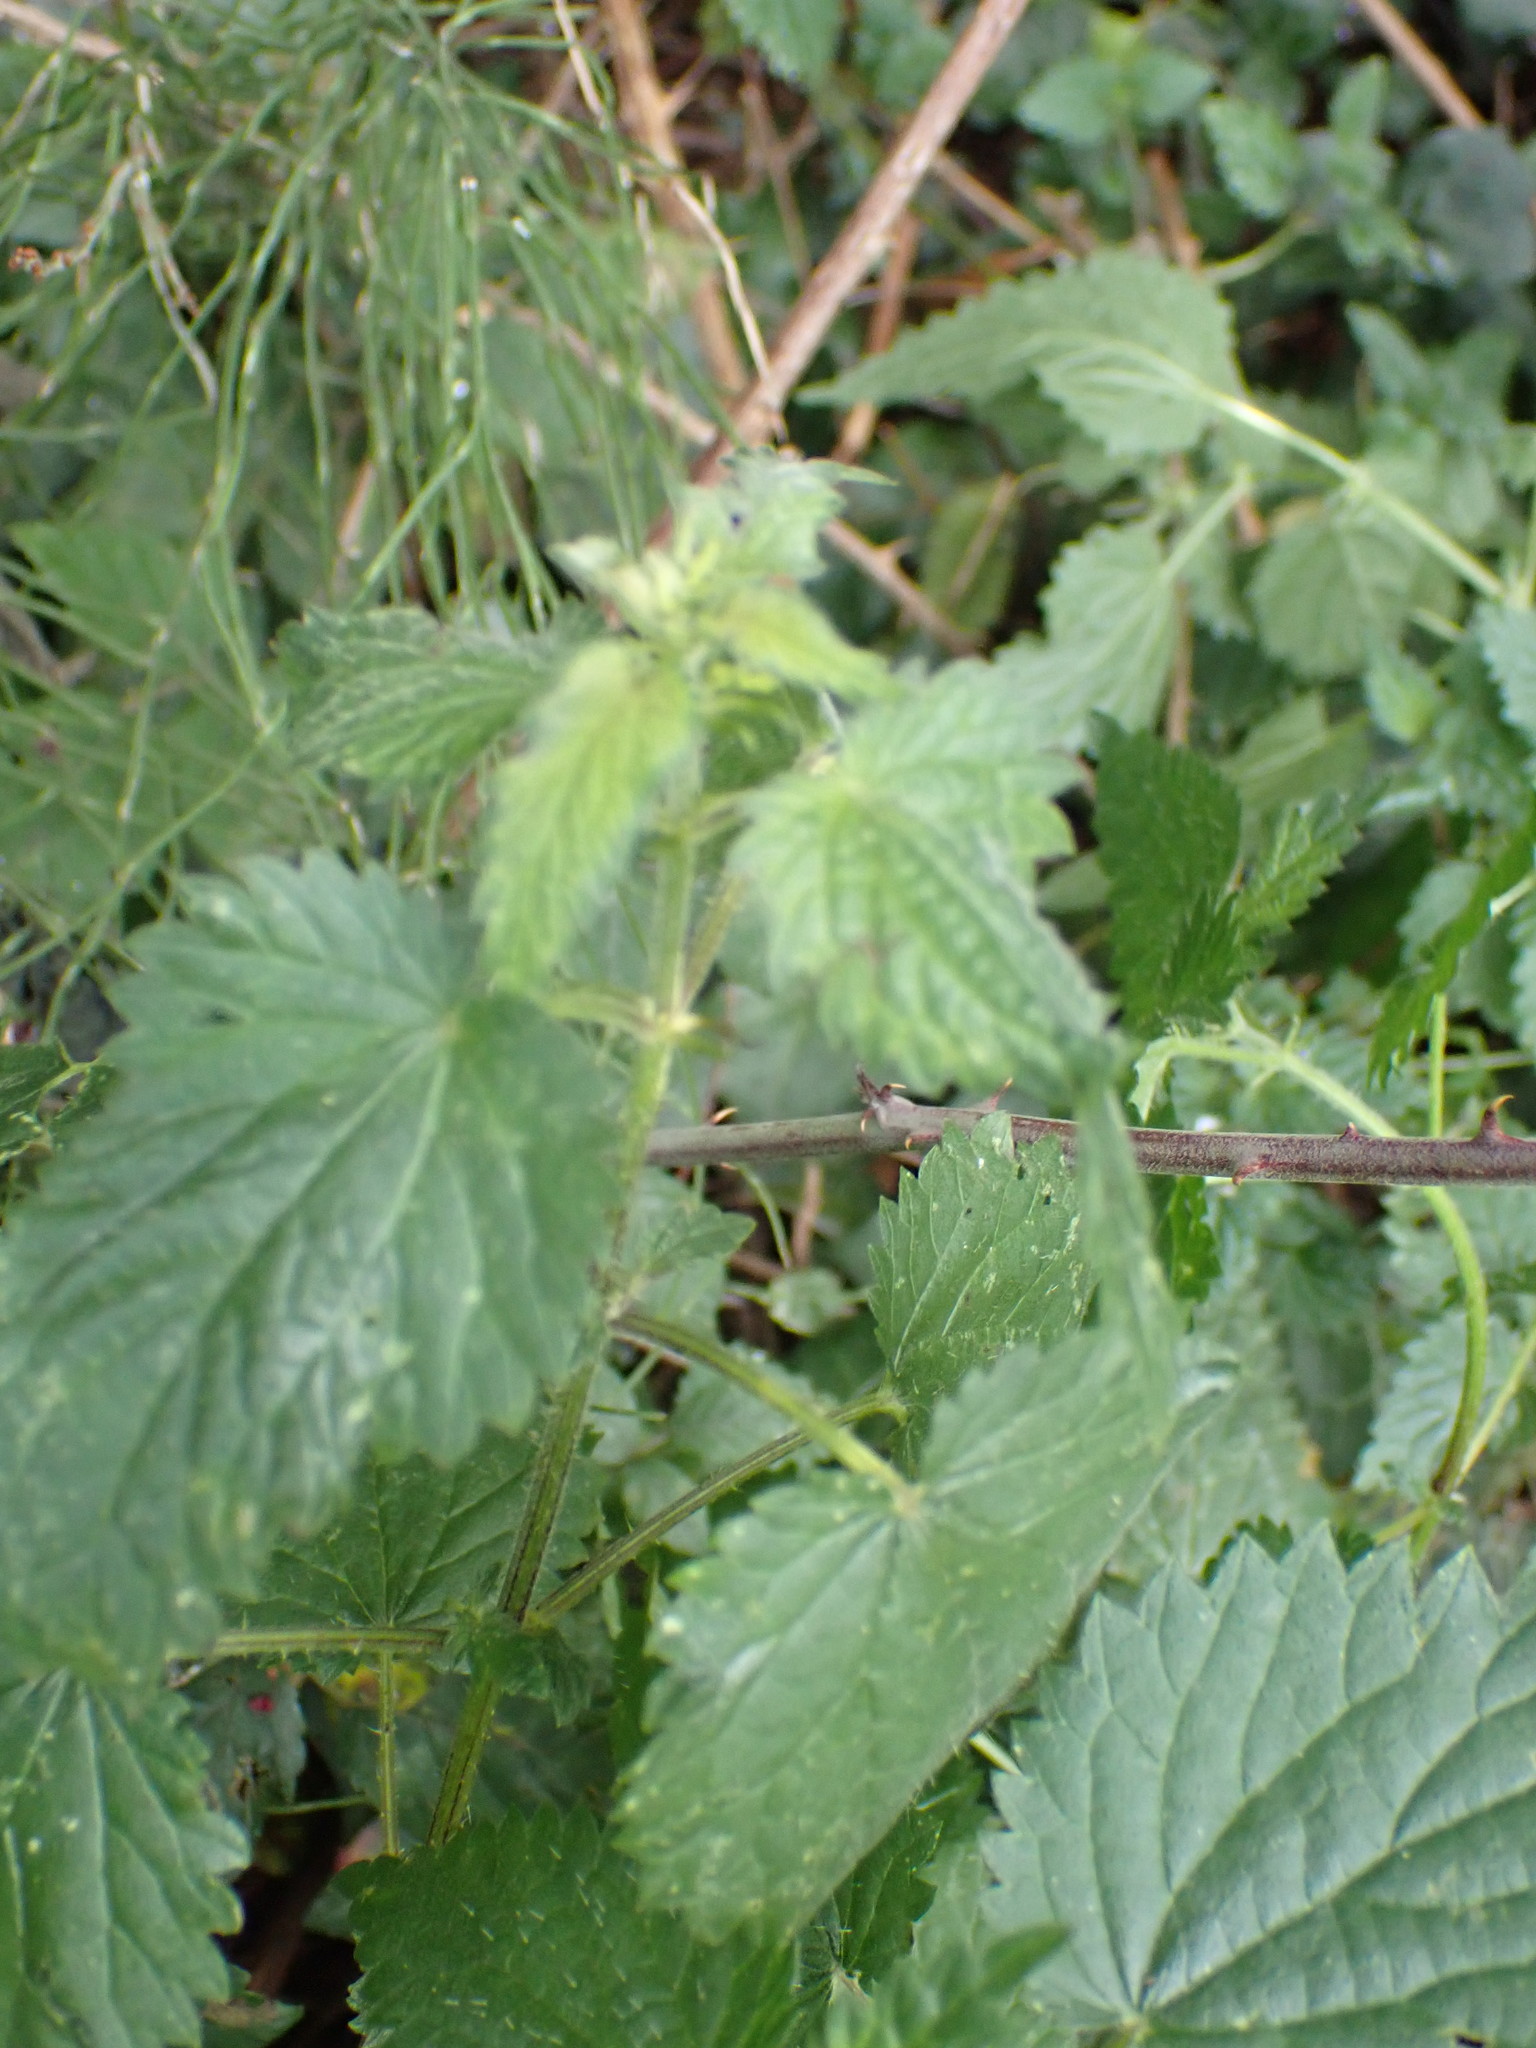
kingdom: Plantae
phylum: Tracheophyta
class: Magnoliopsida
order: Rosales
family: Urticaceae
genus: Urtica
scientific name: Urtica dioica
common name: Common nettle
